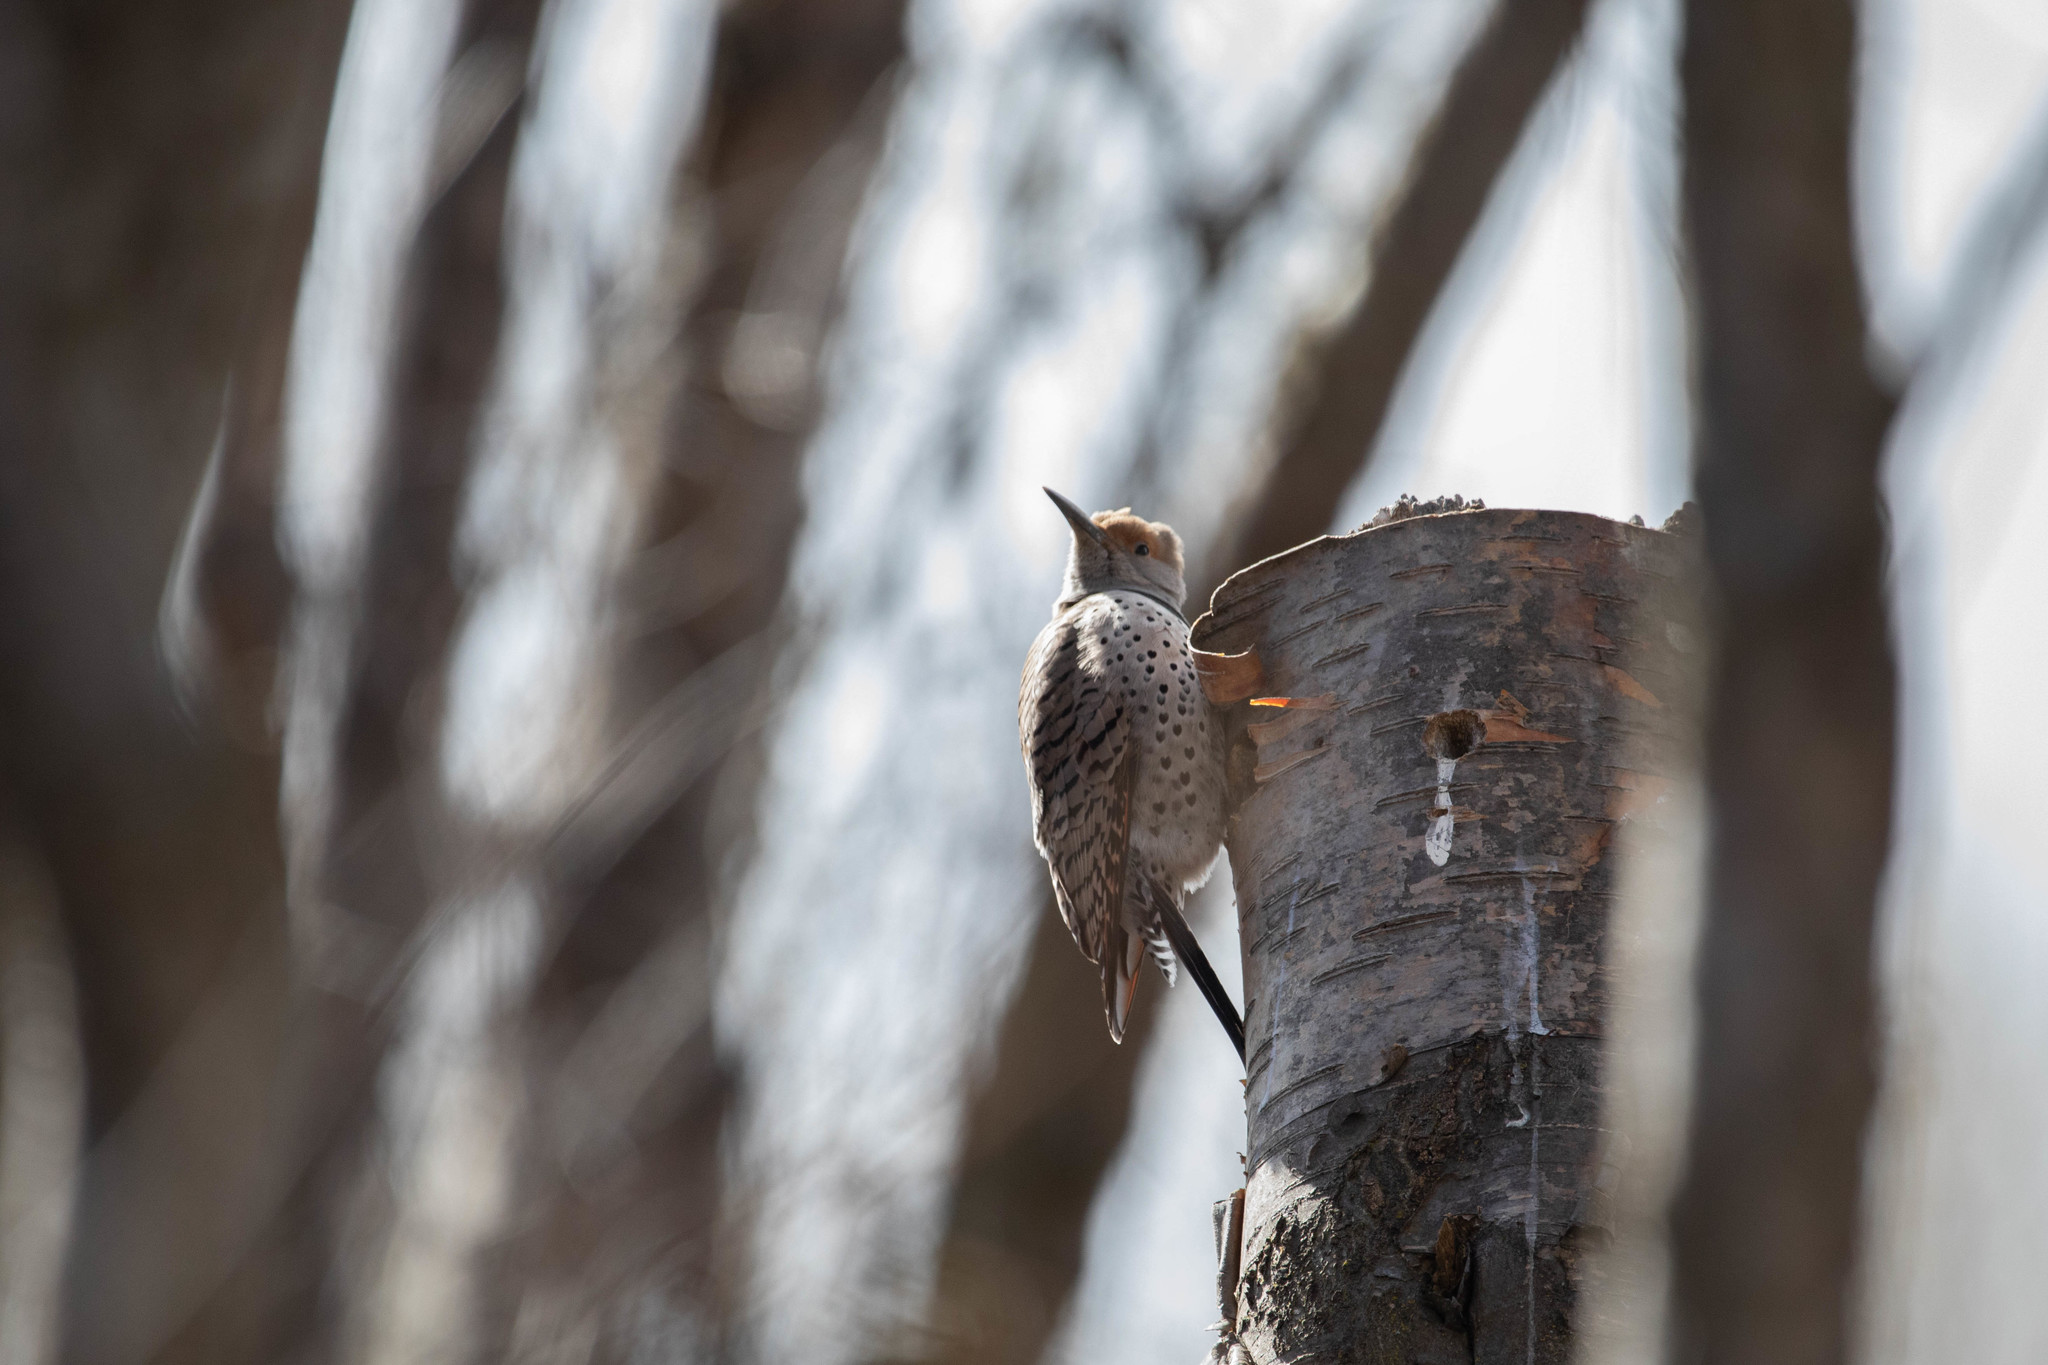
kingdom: Animalia
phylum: Chordata
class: Aves
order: Piciformes
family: Picidae
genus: Colaptes
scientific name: Colaptes auratus
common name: Northern flicker
